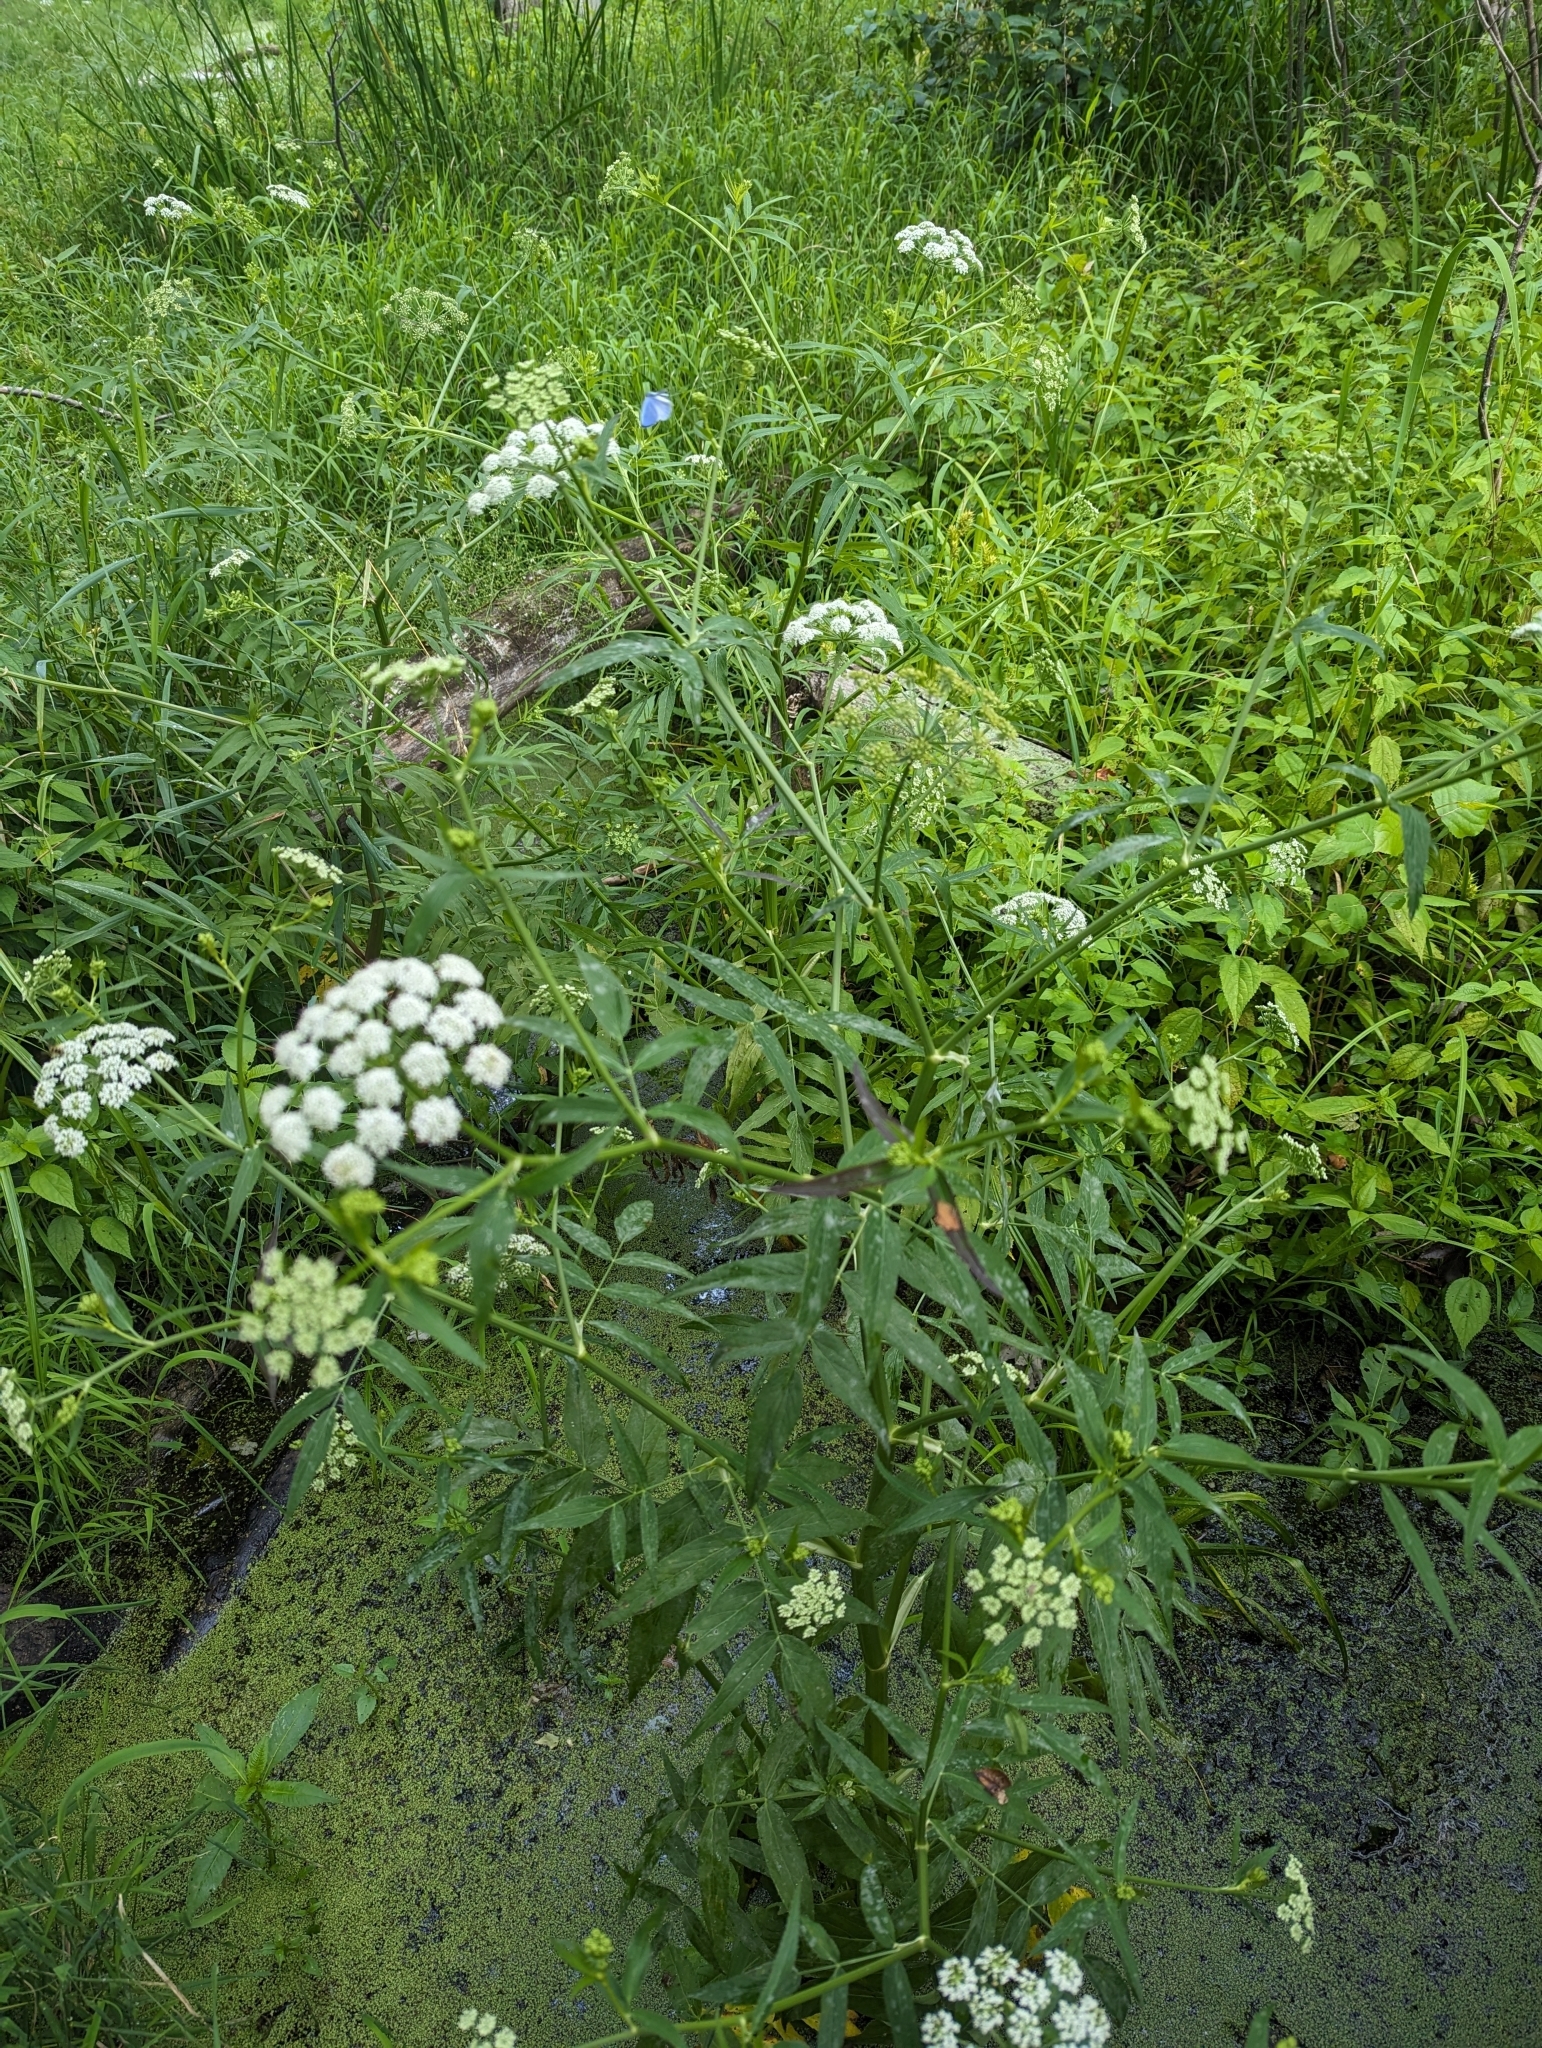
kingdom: Plantae
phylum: Tracheophyta
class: Magnoliopsida
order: Apiales
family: Apiaceae
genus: Sium
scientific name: Sium suave
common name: Hemlock water-parsnip
